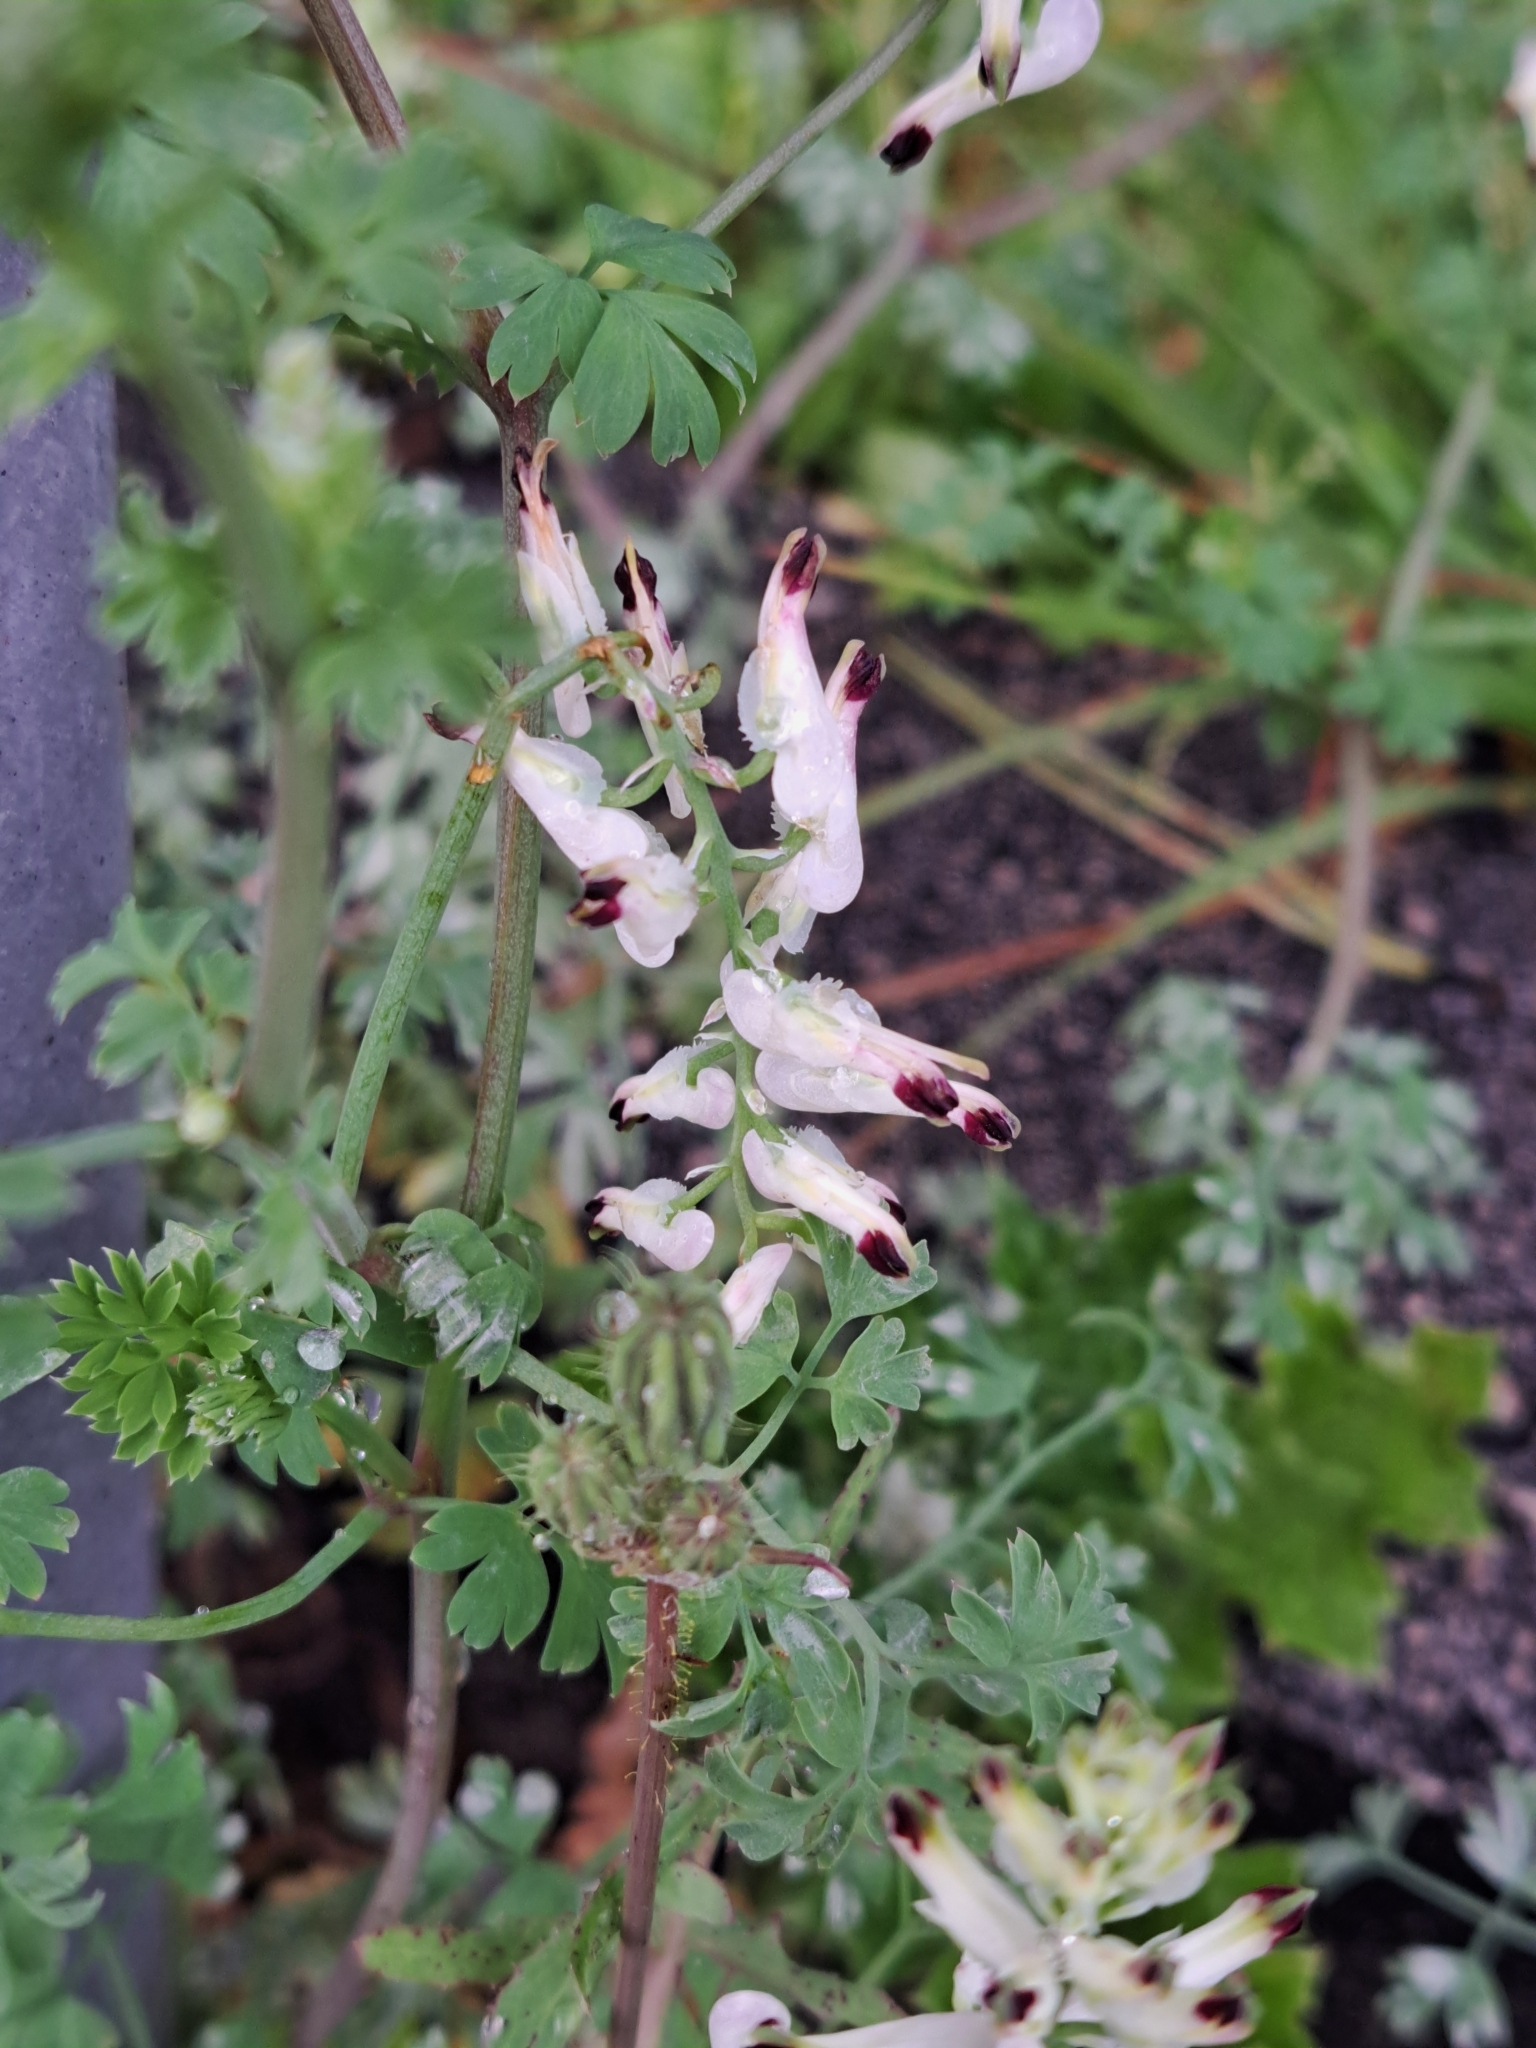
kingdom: Plantae
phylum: Tracheophyta
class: Magnoliopsida
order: Ranunculales
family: Papaveraceae
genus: Fumaria
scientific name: Fumaria capreolata
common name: White ramping-fumitory
